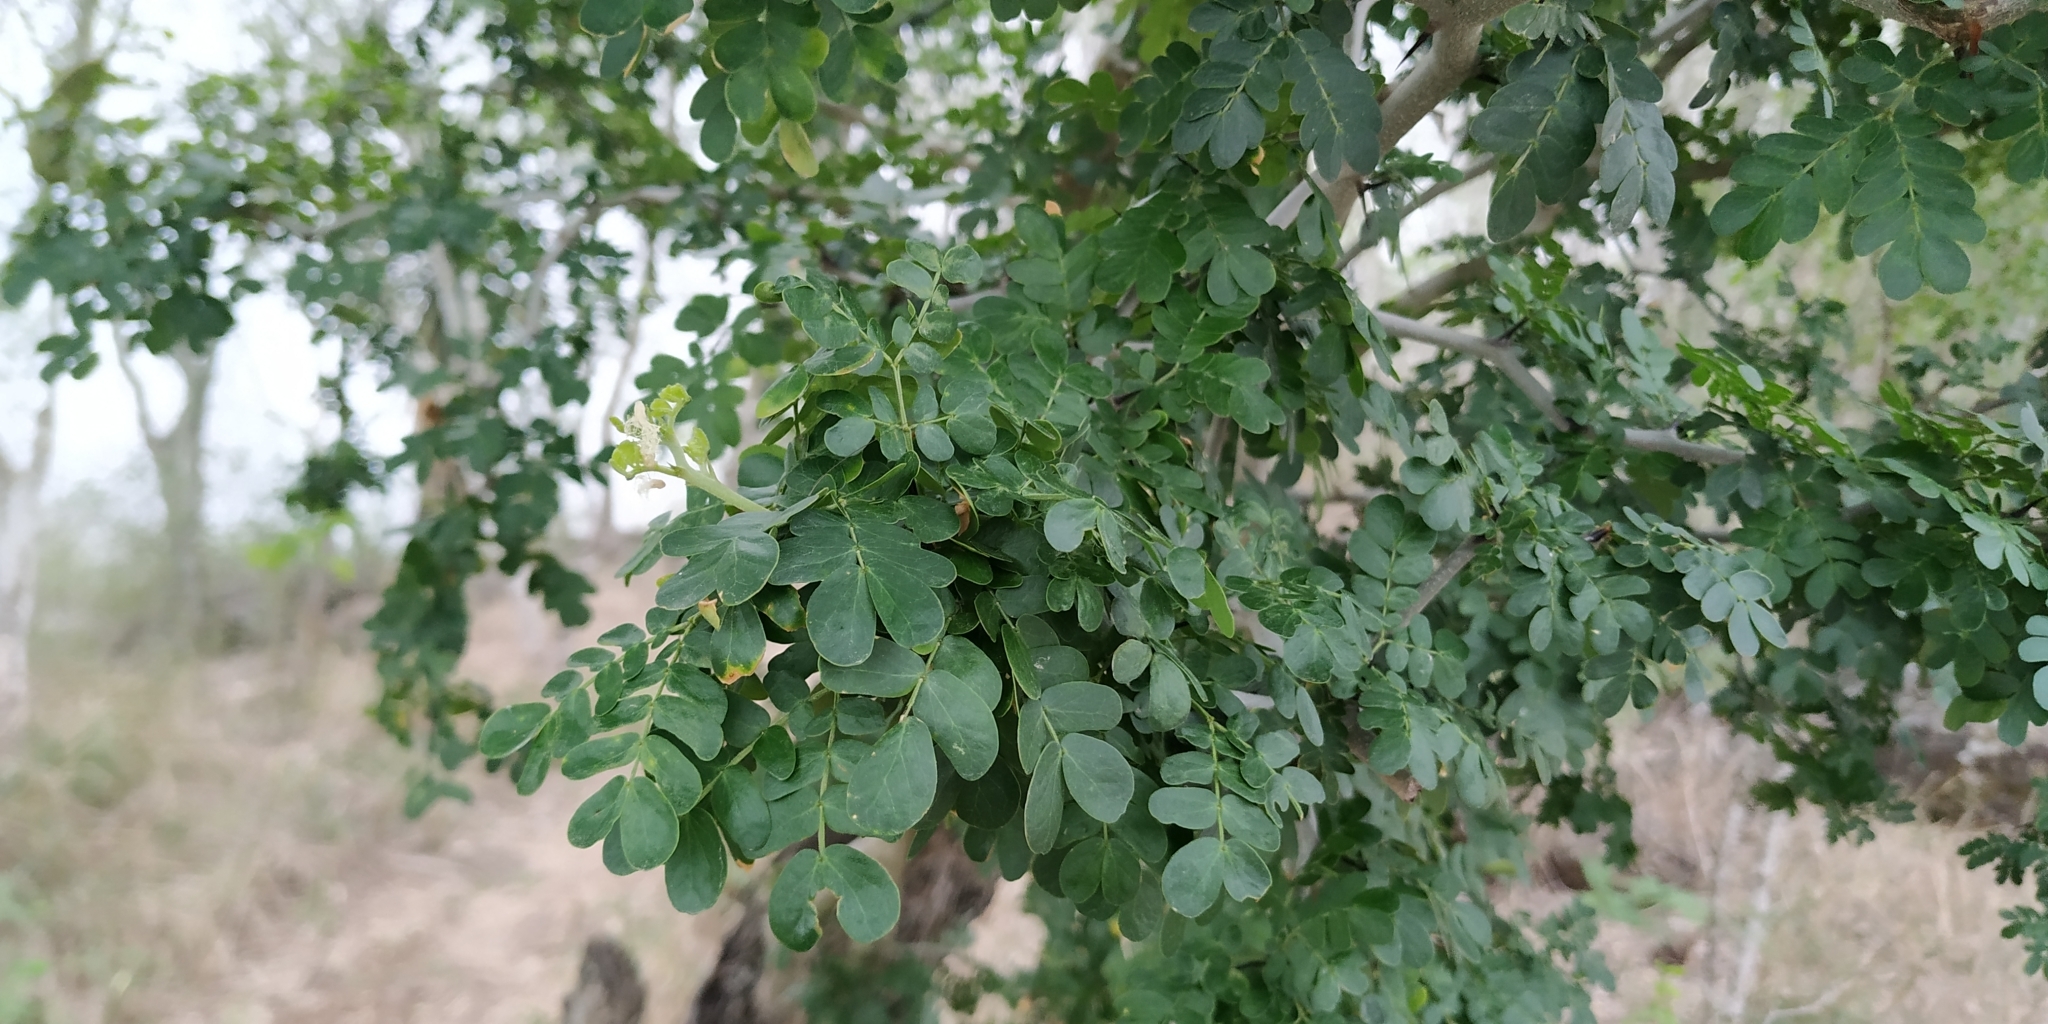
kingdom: Plantae
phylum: Tracheophyta
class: Magnoliopsida
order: Fabales
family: Fabaceae
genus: Ebenopsis
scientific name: Ebenopsis ebano
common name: Ebony blackbead
